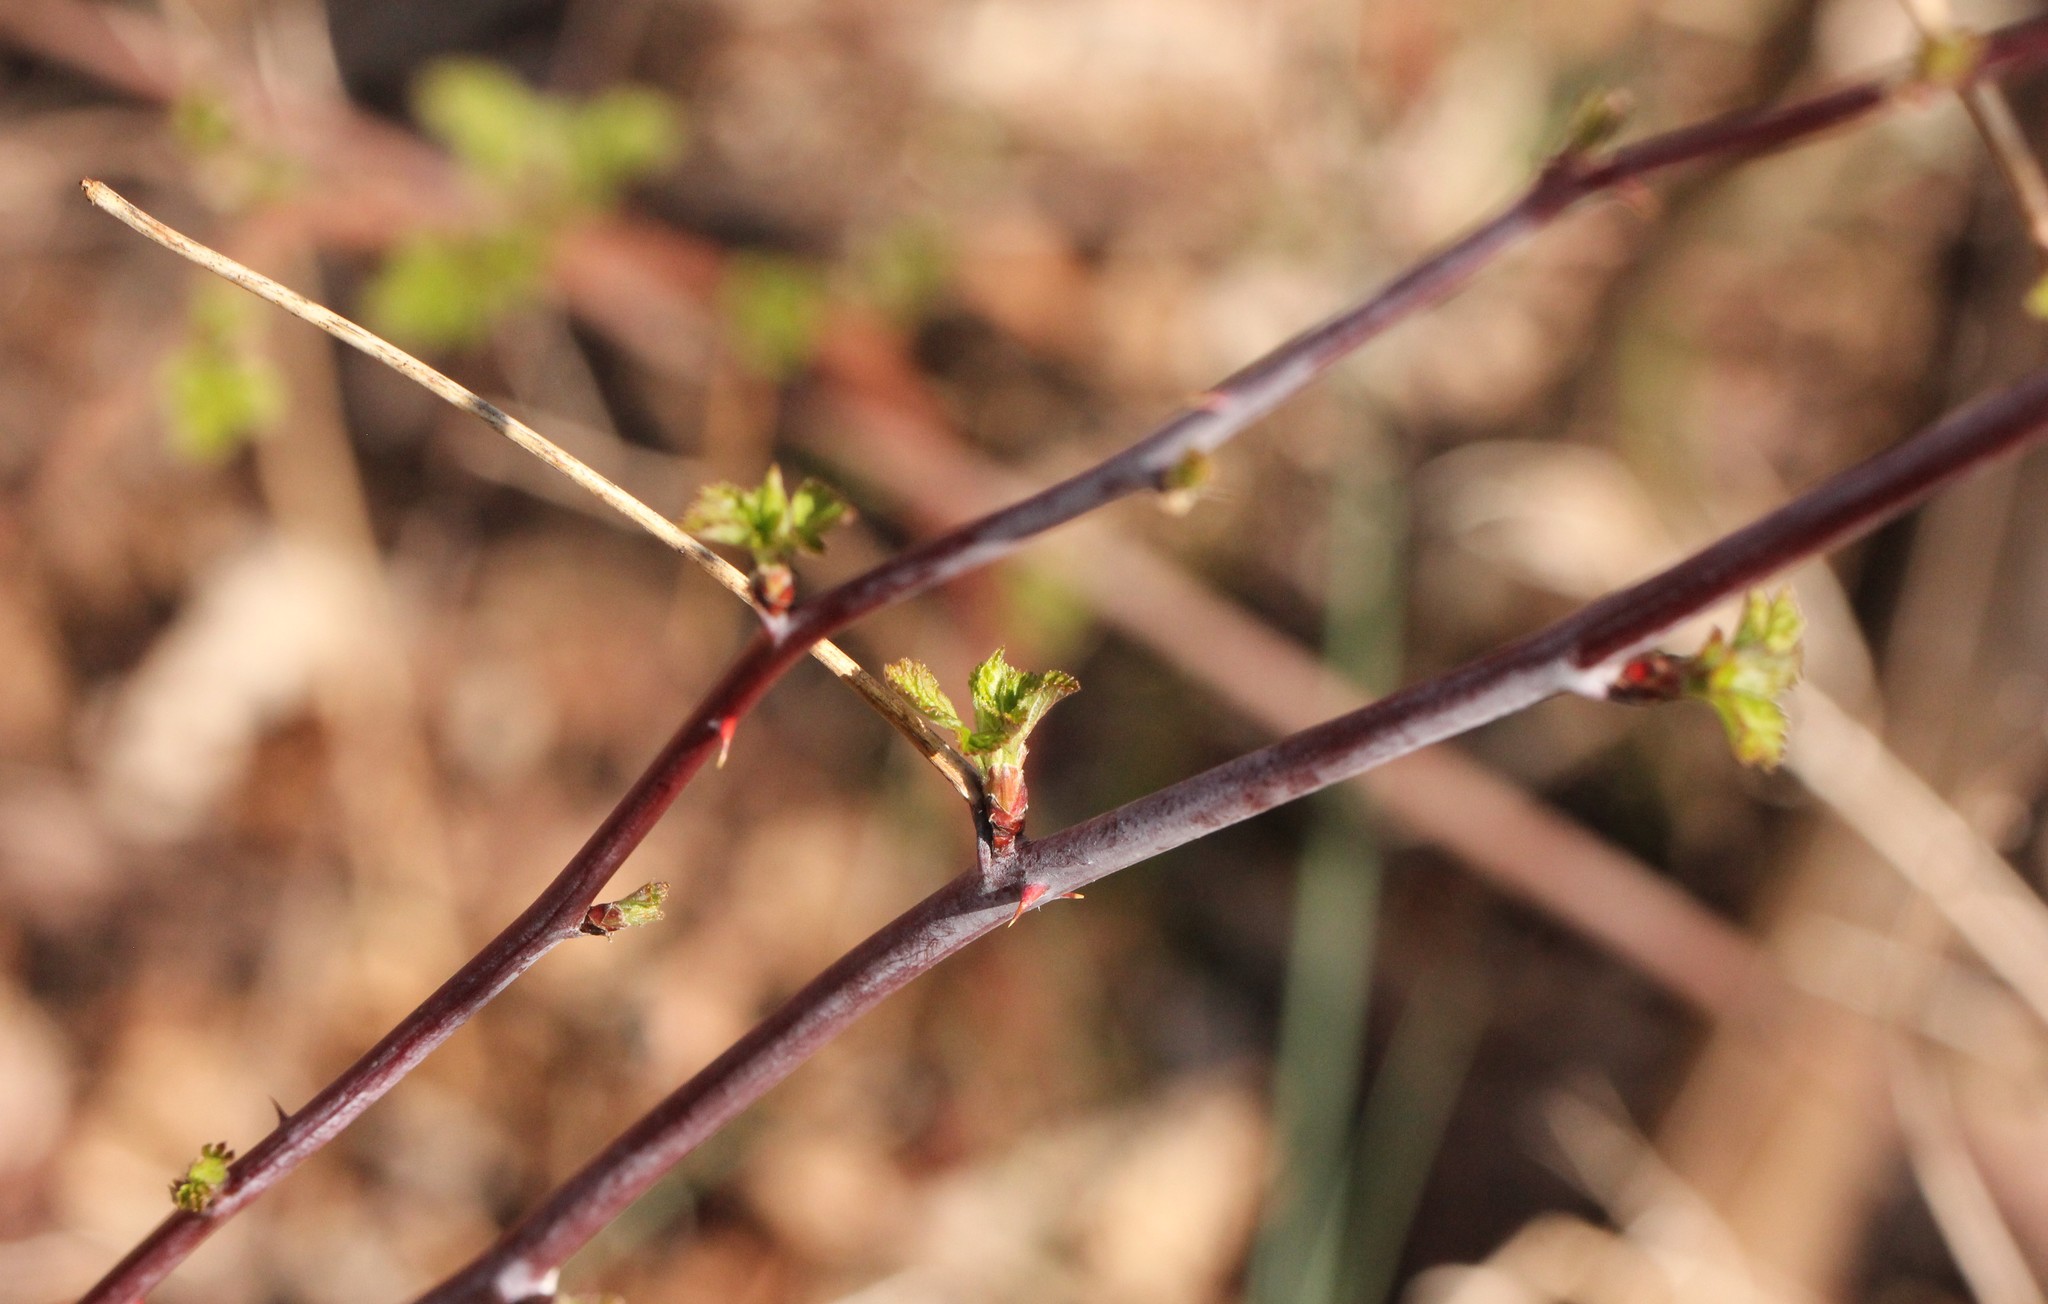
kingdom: Plantae
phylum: Tracheophyta
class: Magnoliopsida
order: Rosales
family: Rosaceae
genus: Rubus
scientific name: Rubus occidentalis
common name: Black raspberry
